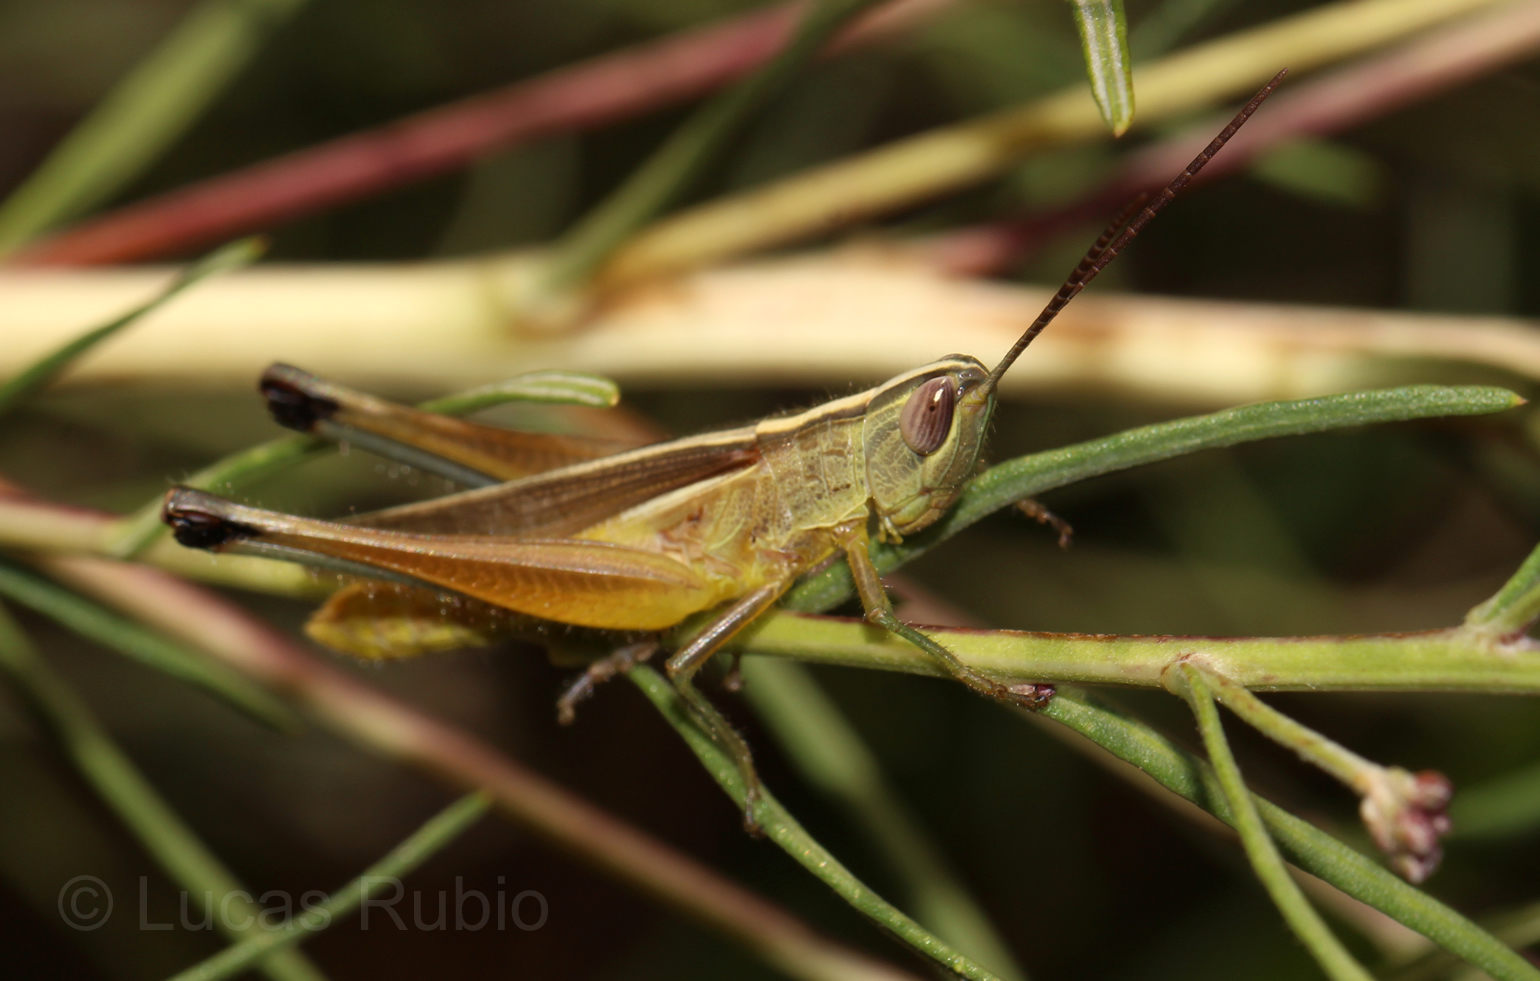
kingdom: Animalia
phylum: Arthropoda
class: Insecta
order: Orthoptera
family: Acrididae
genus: Staurorhectus
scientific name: Staurorhectus longicornis
